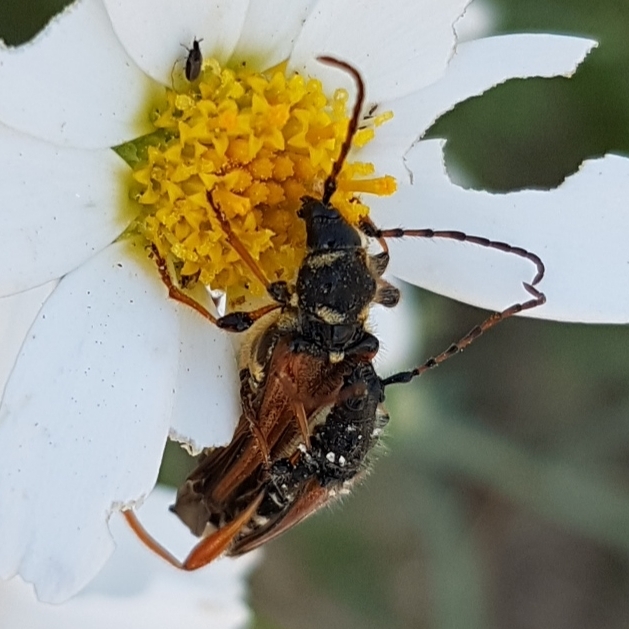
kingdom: Animalia
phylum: Arthropoda
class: Insecta
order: Coleoptera
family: Cerambycidae
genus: Stenopterus
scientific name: Stenopterus rufus
